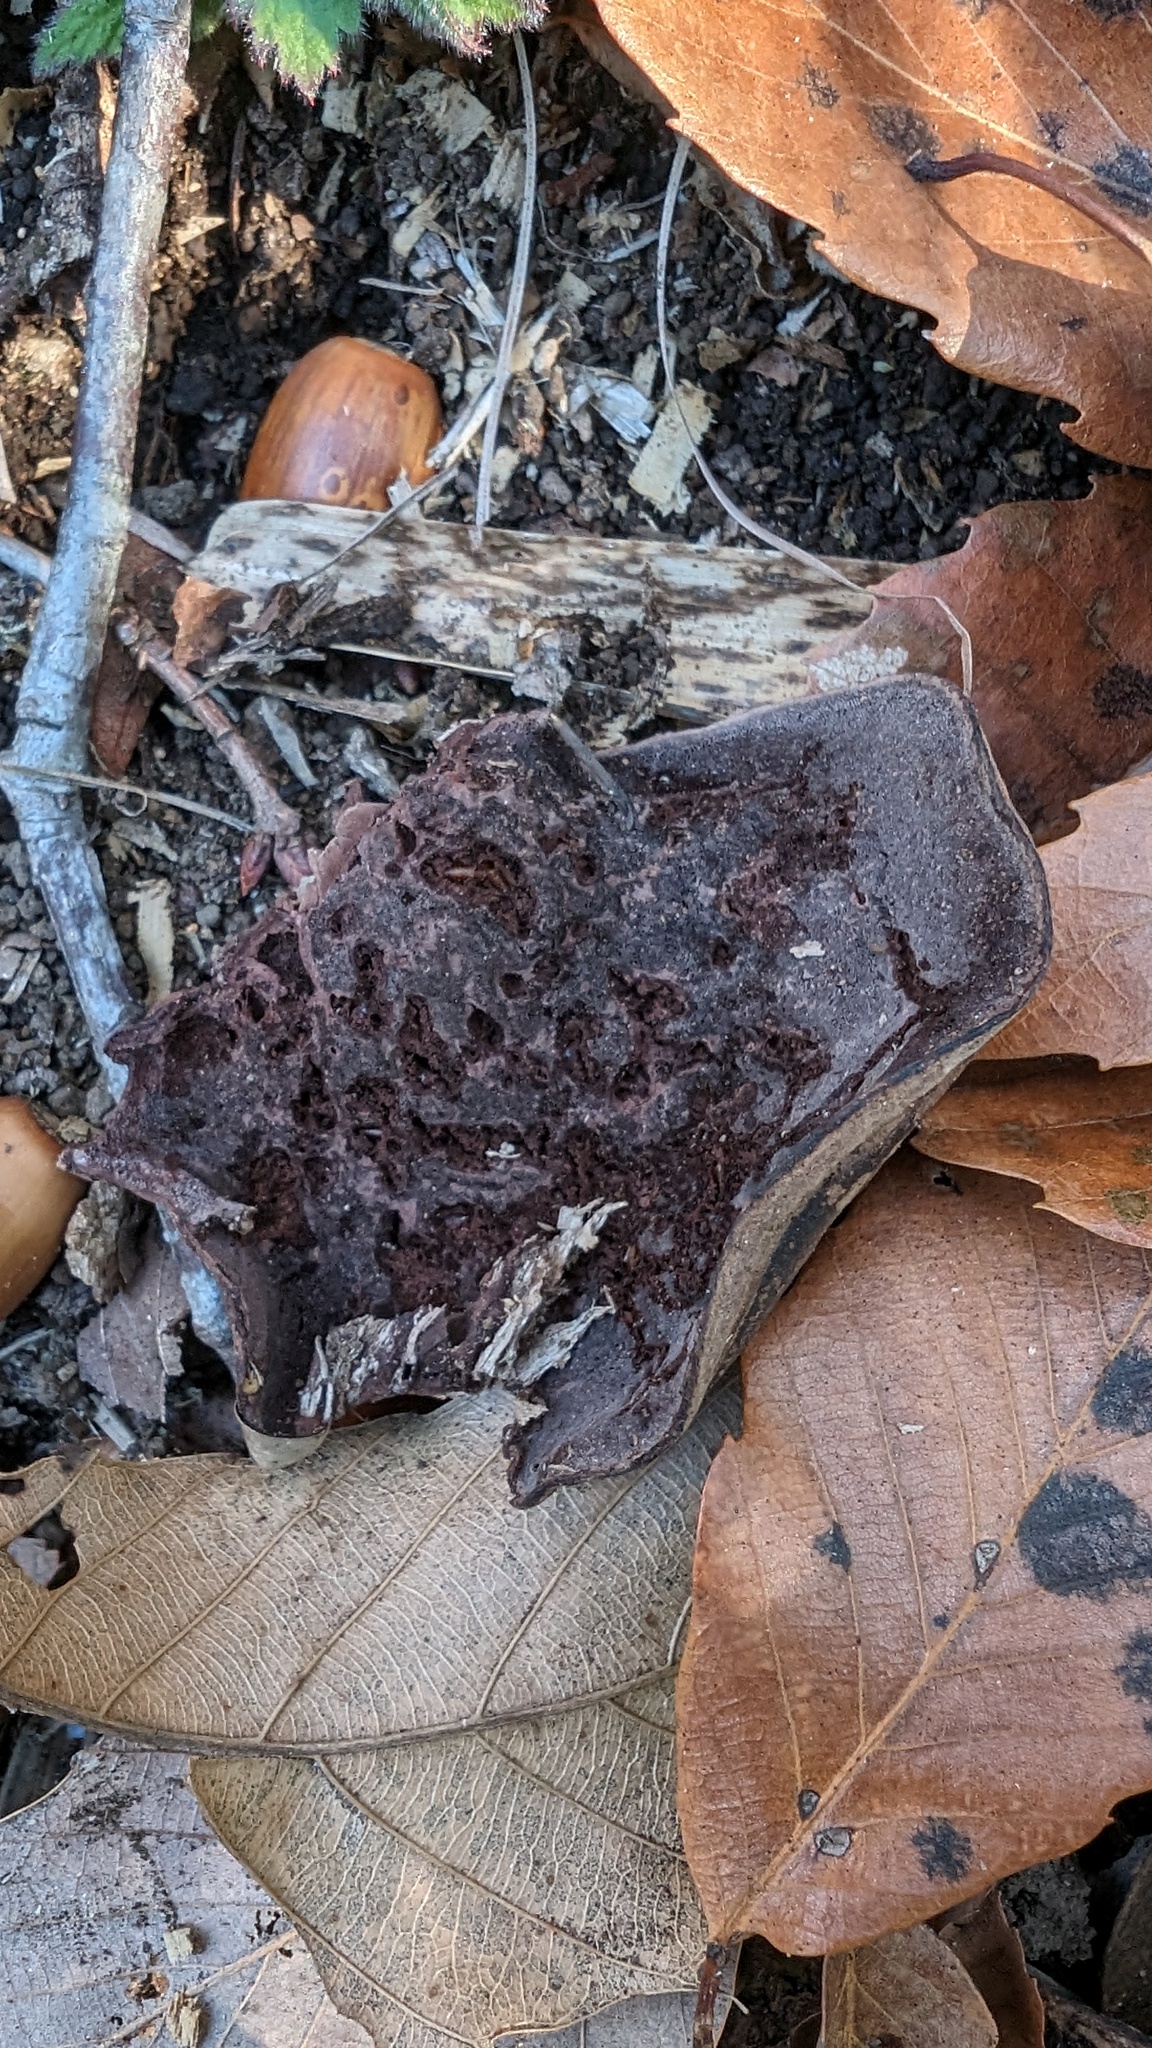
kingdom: Fungi
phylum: Basidiomycota
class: Agaricomycetes
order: Polyporales
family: Steccherinaceae
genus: Nigroporus
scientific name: Nigroporus vinosus
